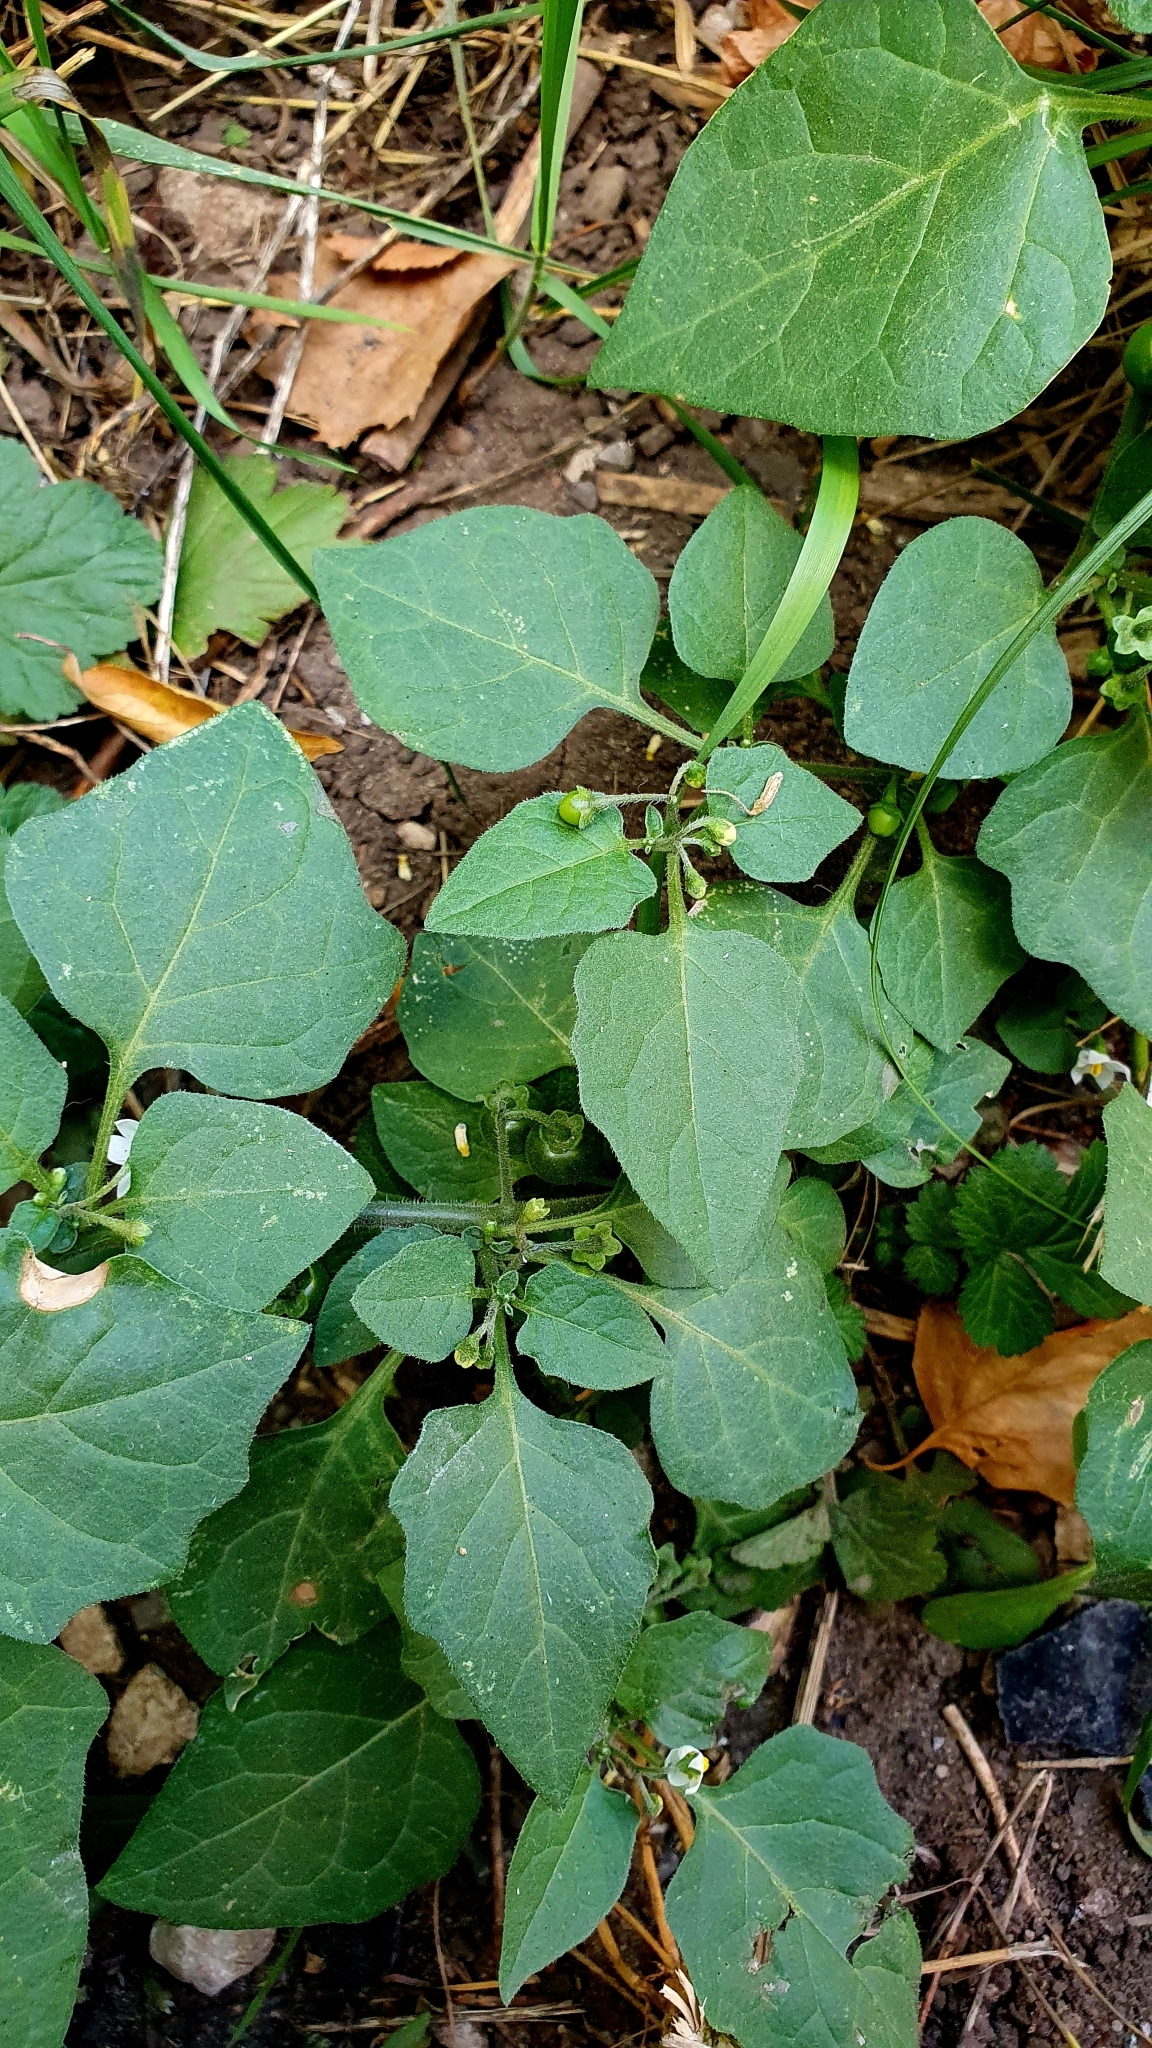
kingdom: Plantae
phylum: Tracheophyta
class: Magnoliopsida
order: Solanales
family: Solanaceae
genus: Solanum
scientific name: Solanum nigrum
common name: Black nightshade
